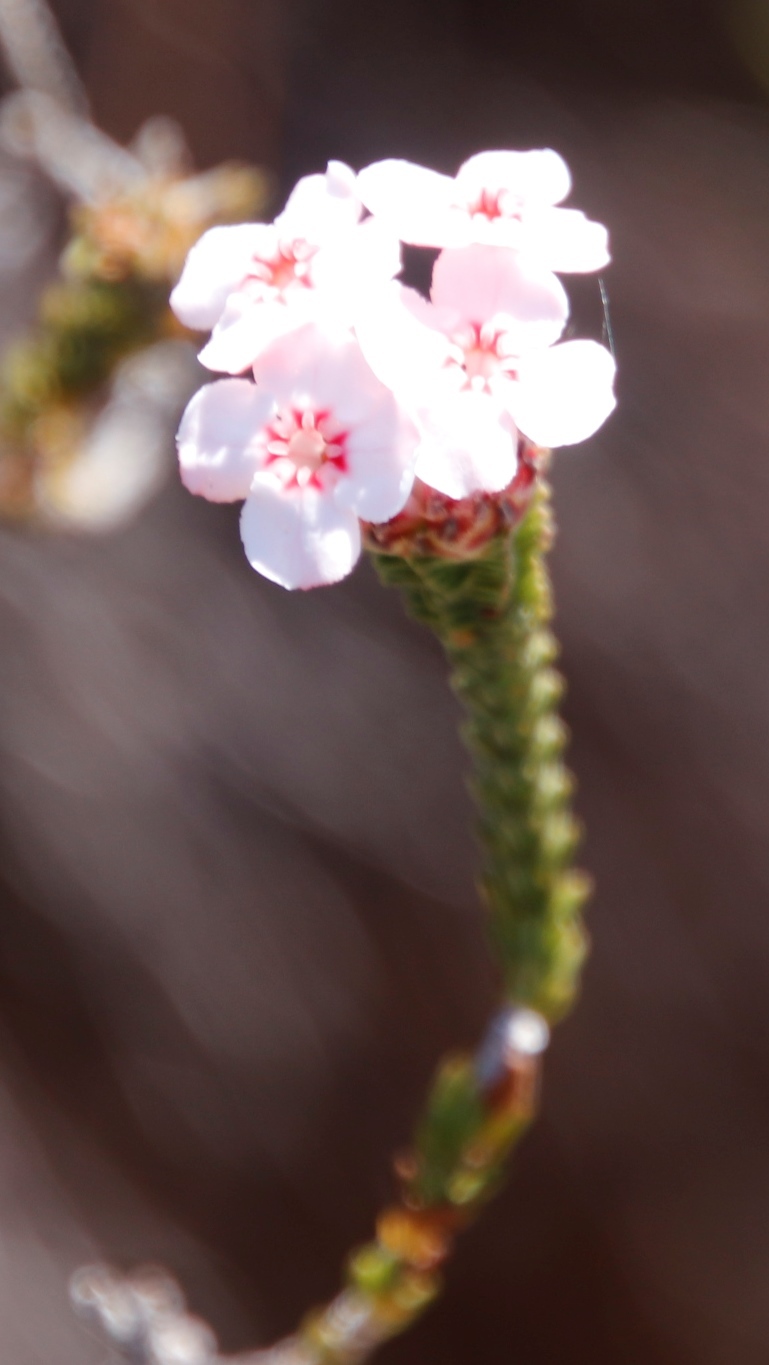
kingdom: Plantae
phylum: Tracheophyta
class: Magnoliopsida
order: Ericales
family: Ericaceae
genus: Erica
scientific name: Erica ampullacea
